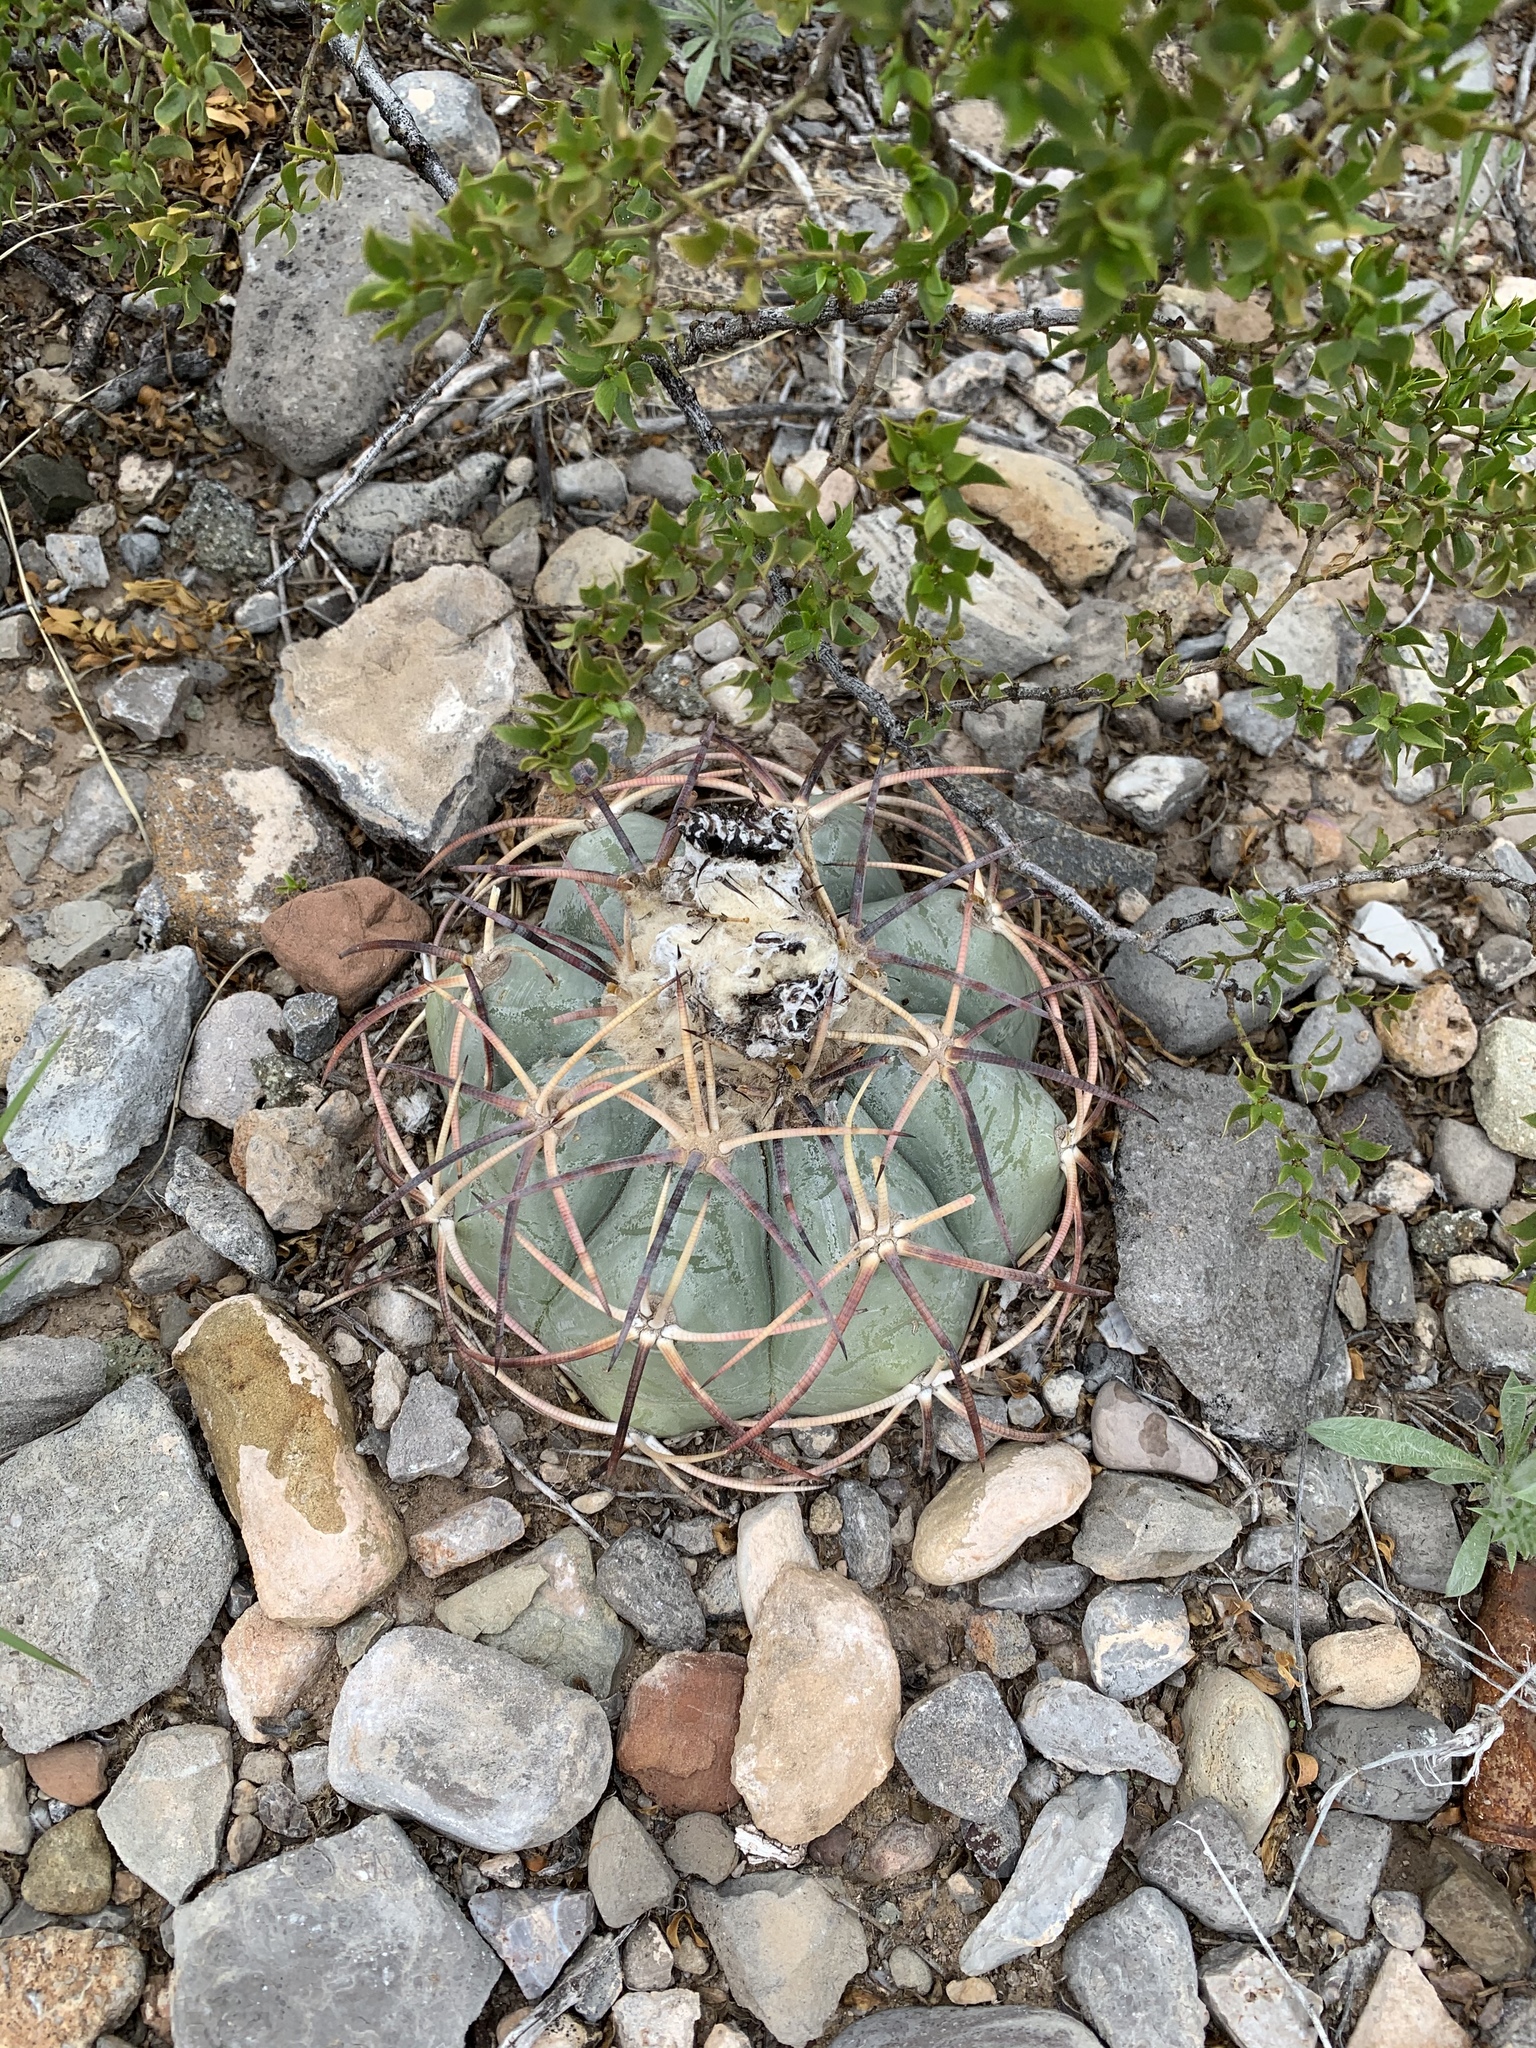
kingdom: Plantae
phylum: Tracheophyta
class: Magnoliopsida
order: Caryophyllales
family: Cactaceae
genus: Echinocactus
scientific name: Echinocactus horizonthalonius
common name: Devilshead
